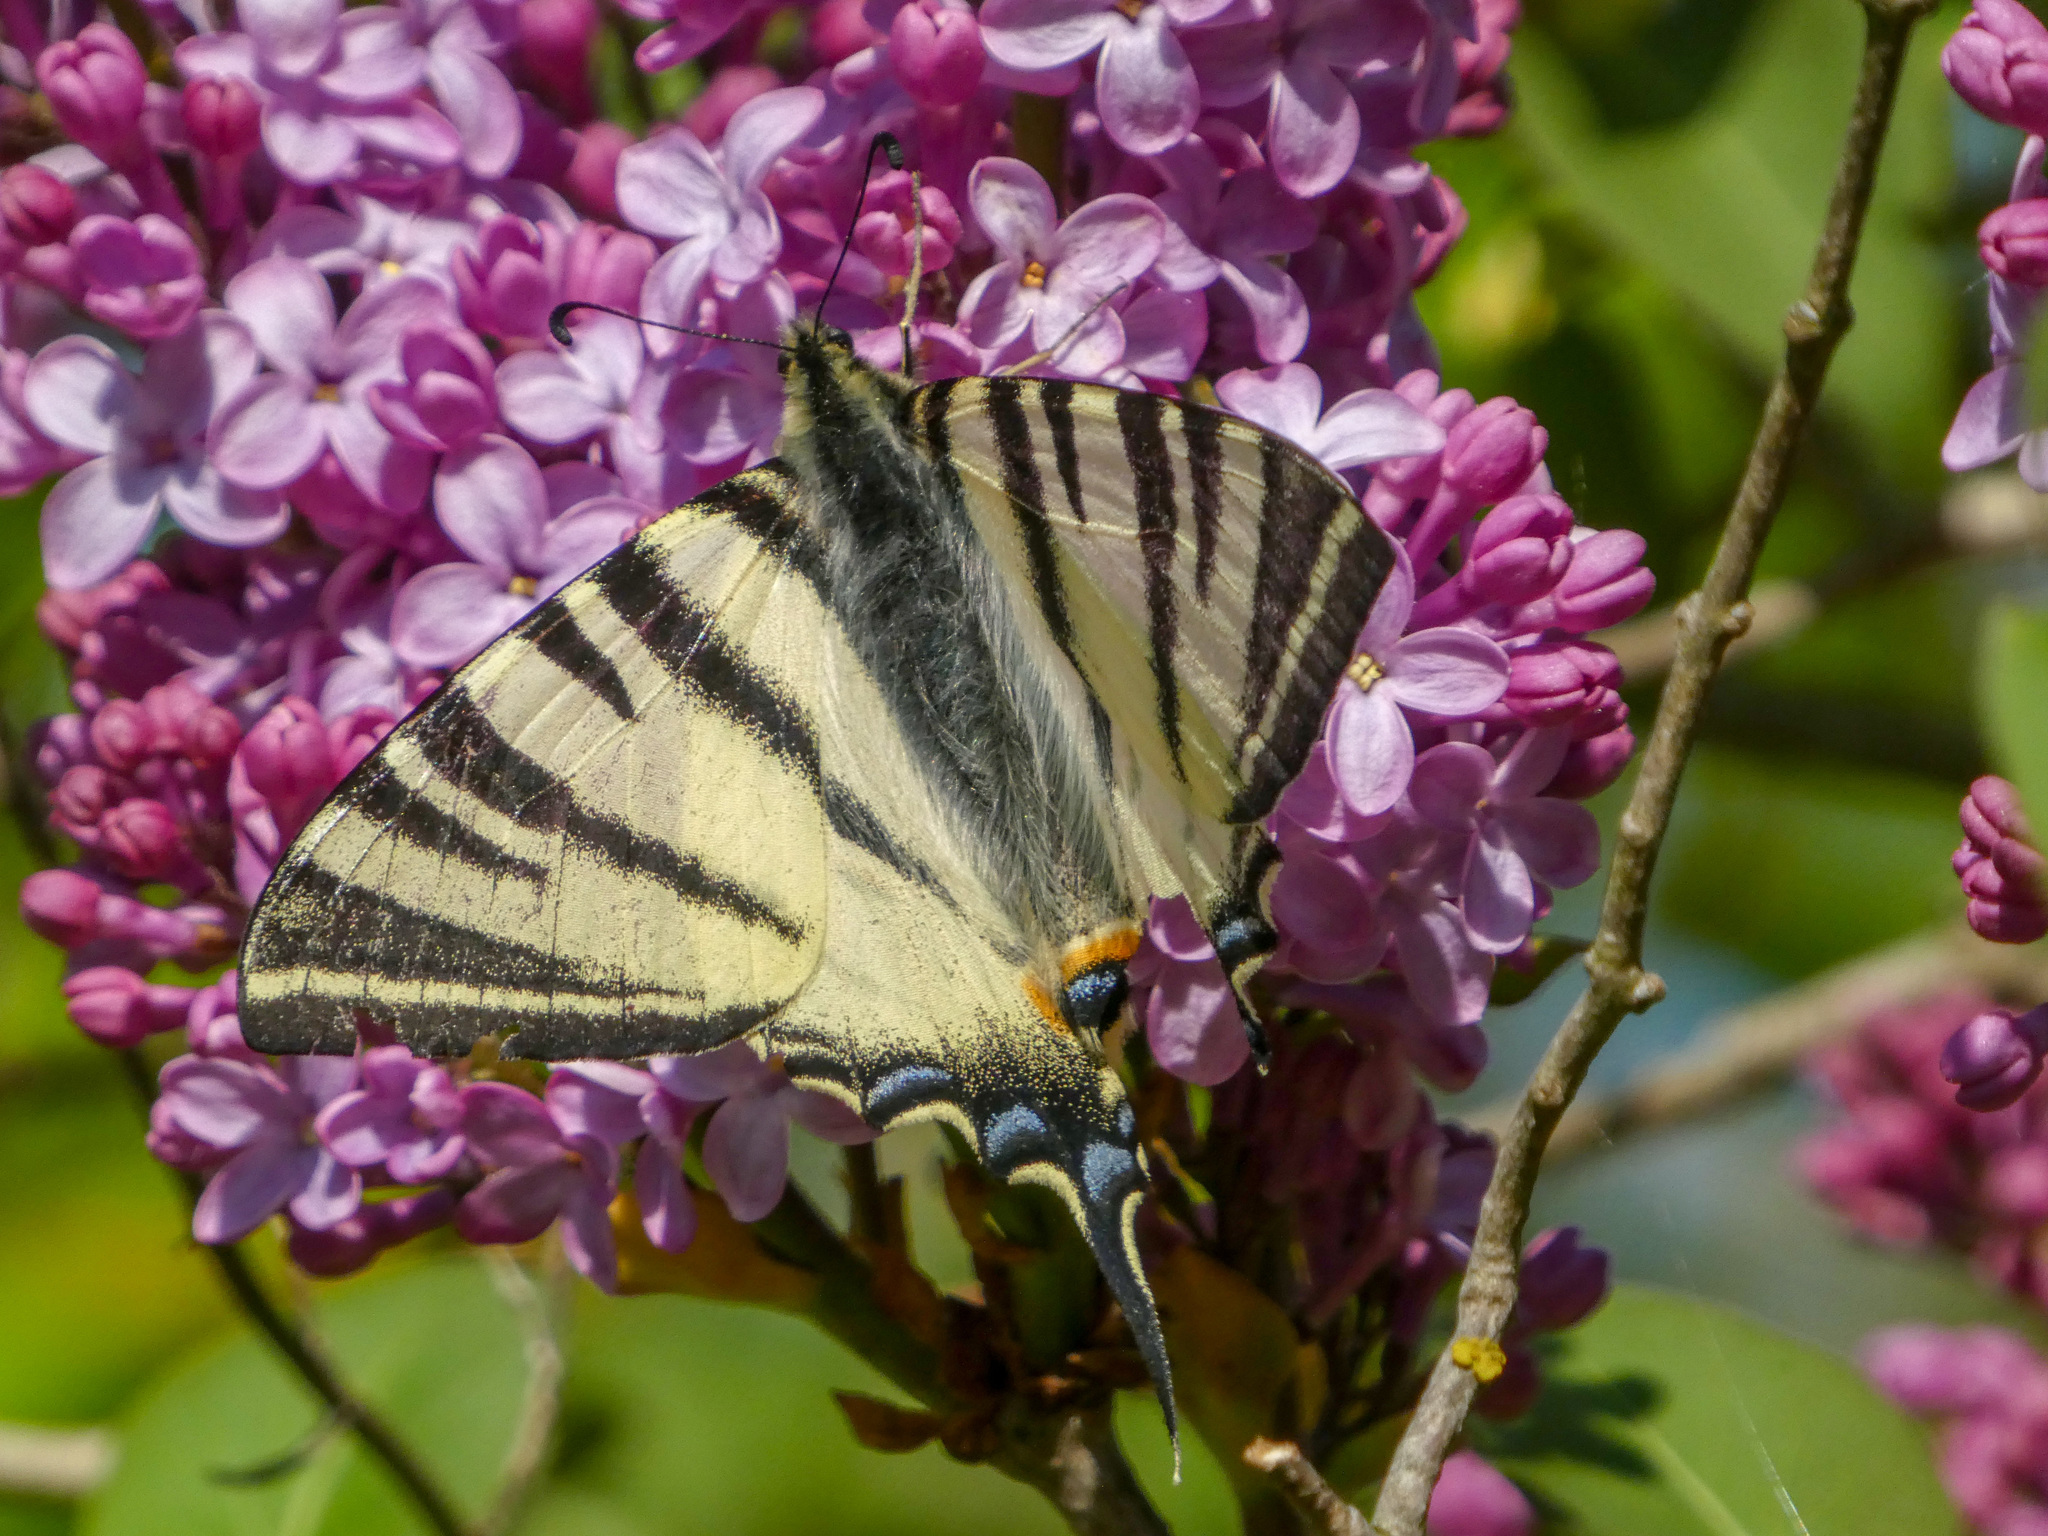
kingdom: Animalia
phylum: Arthropoda
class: Insecta
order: Lepidoptera
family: Papilionidae
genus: Iphiclides
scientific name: Iphiclides podalirius
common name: Scarce swallowtail
